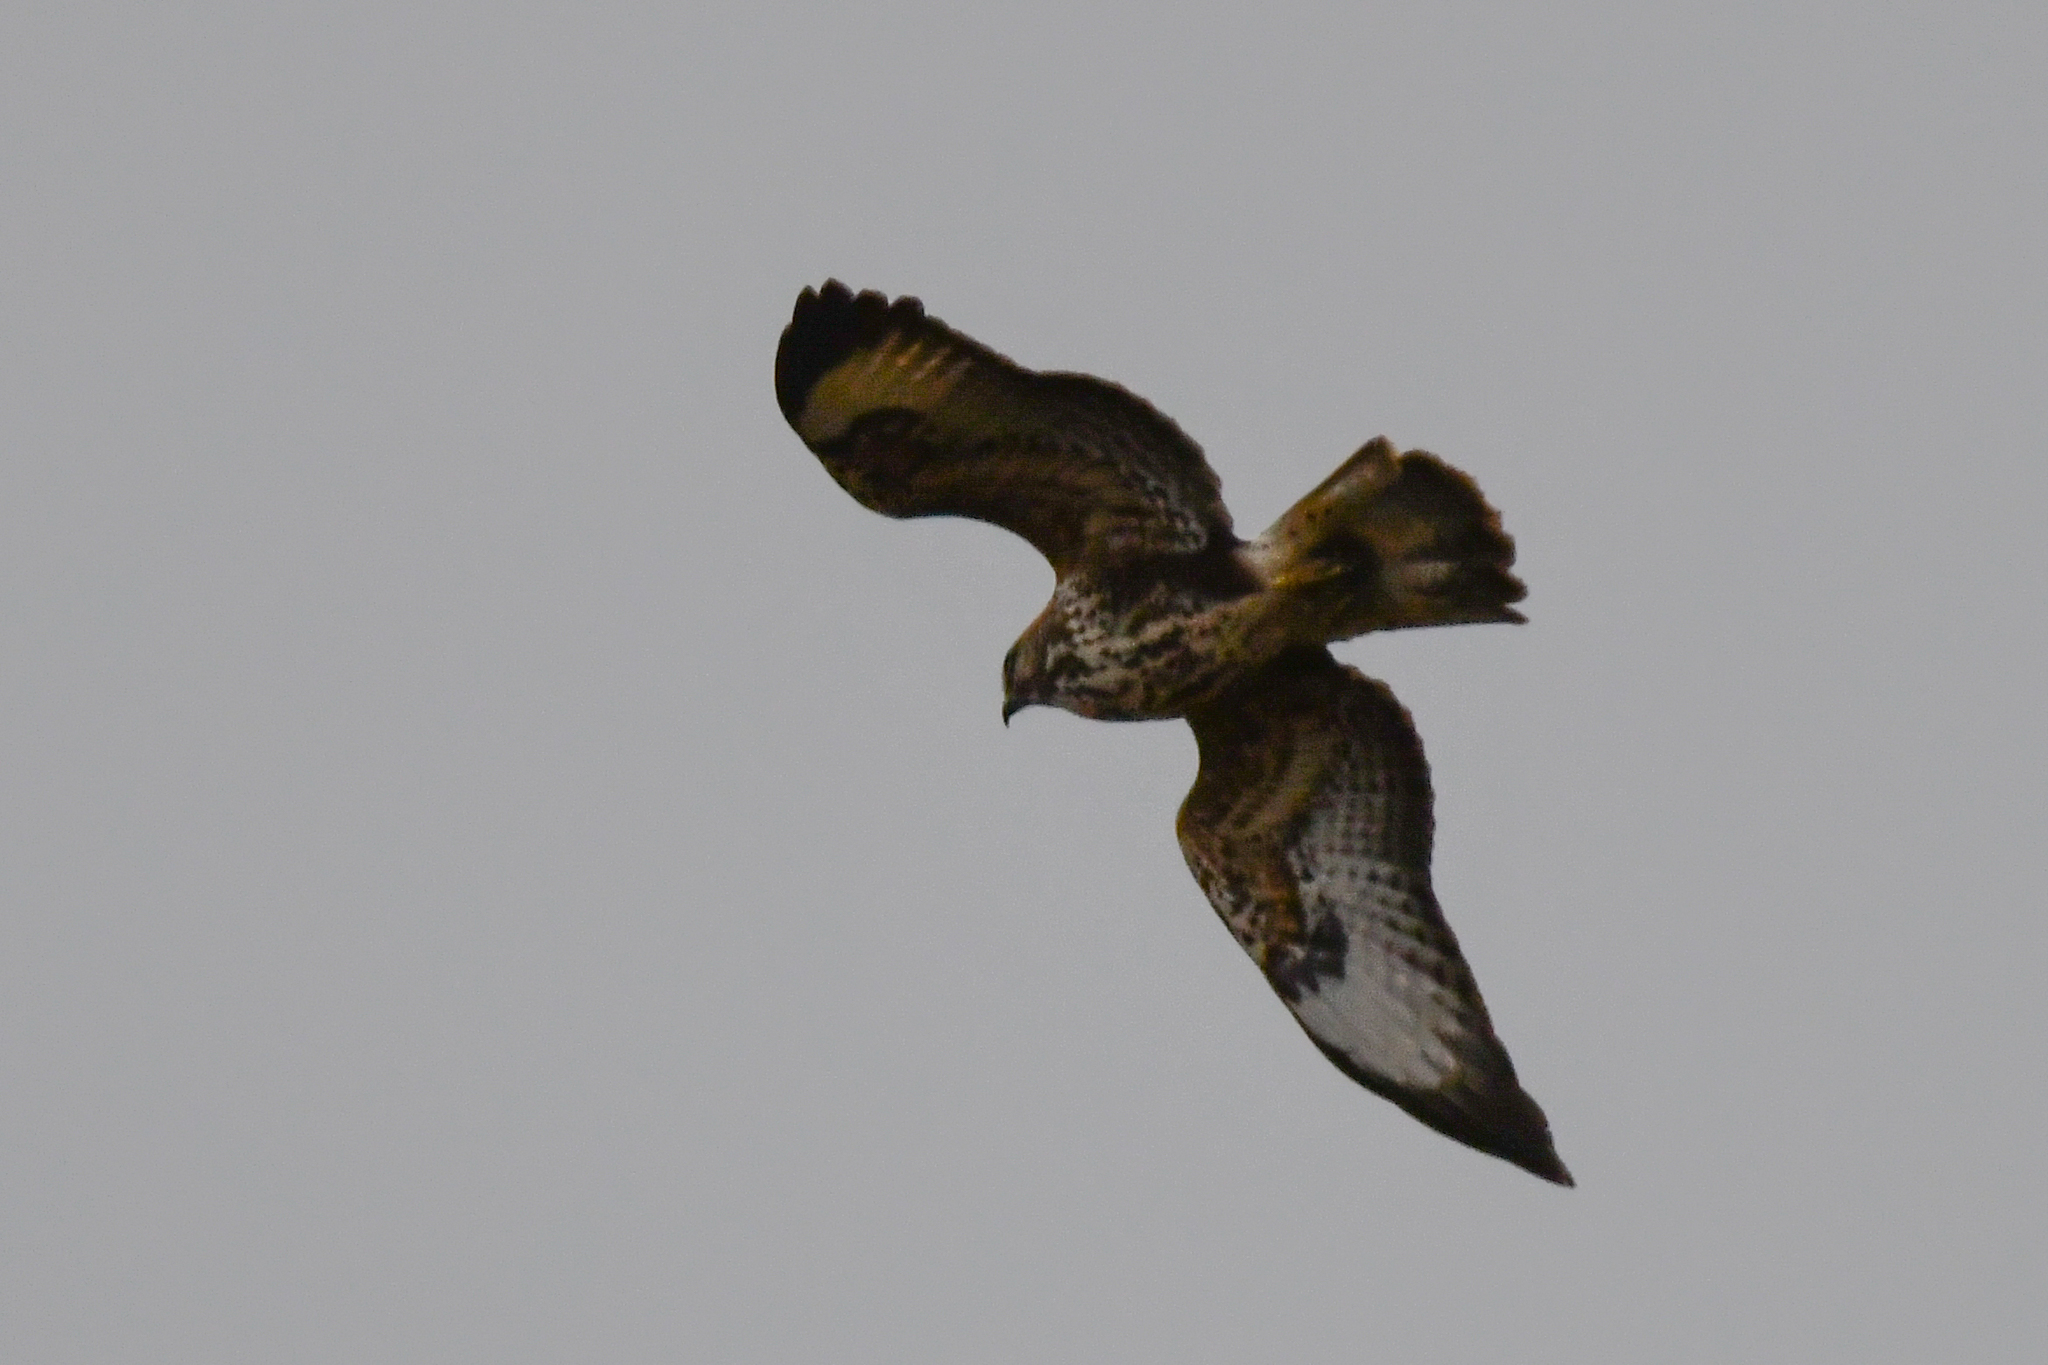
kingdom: Animalia
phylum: Chordata
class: Aves
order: Accipitriformes
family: Accipitridae
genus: Buteo
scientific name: Buteo buteo
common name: Common buzzard
